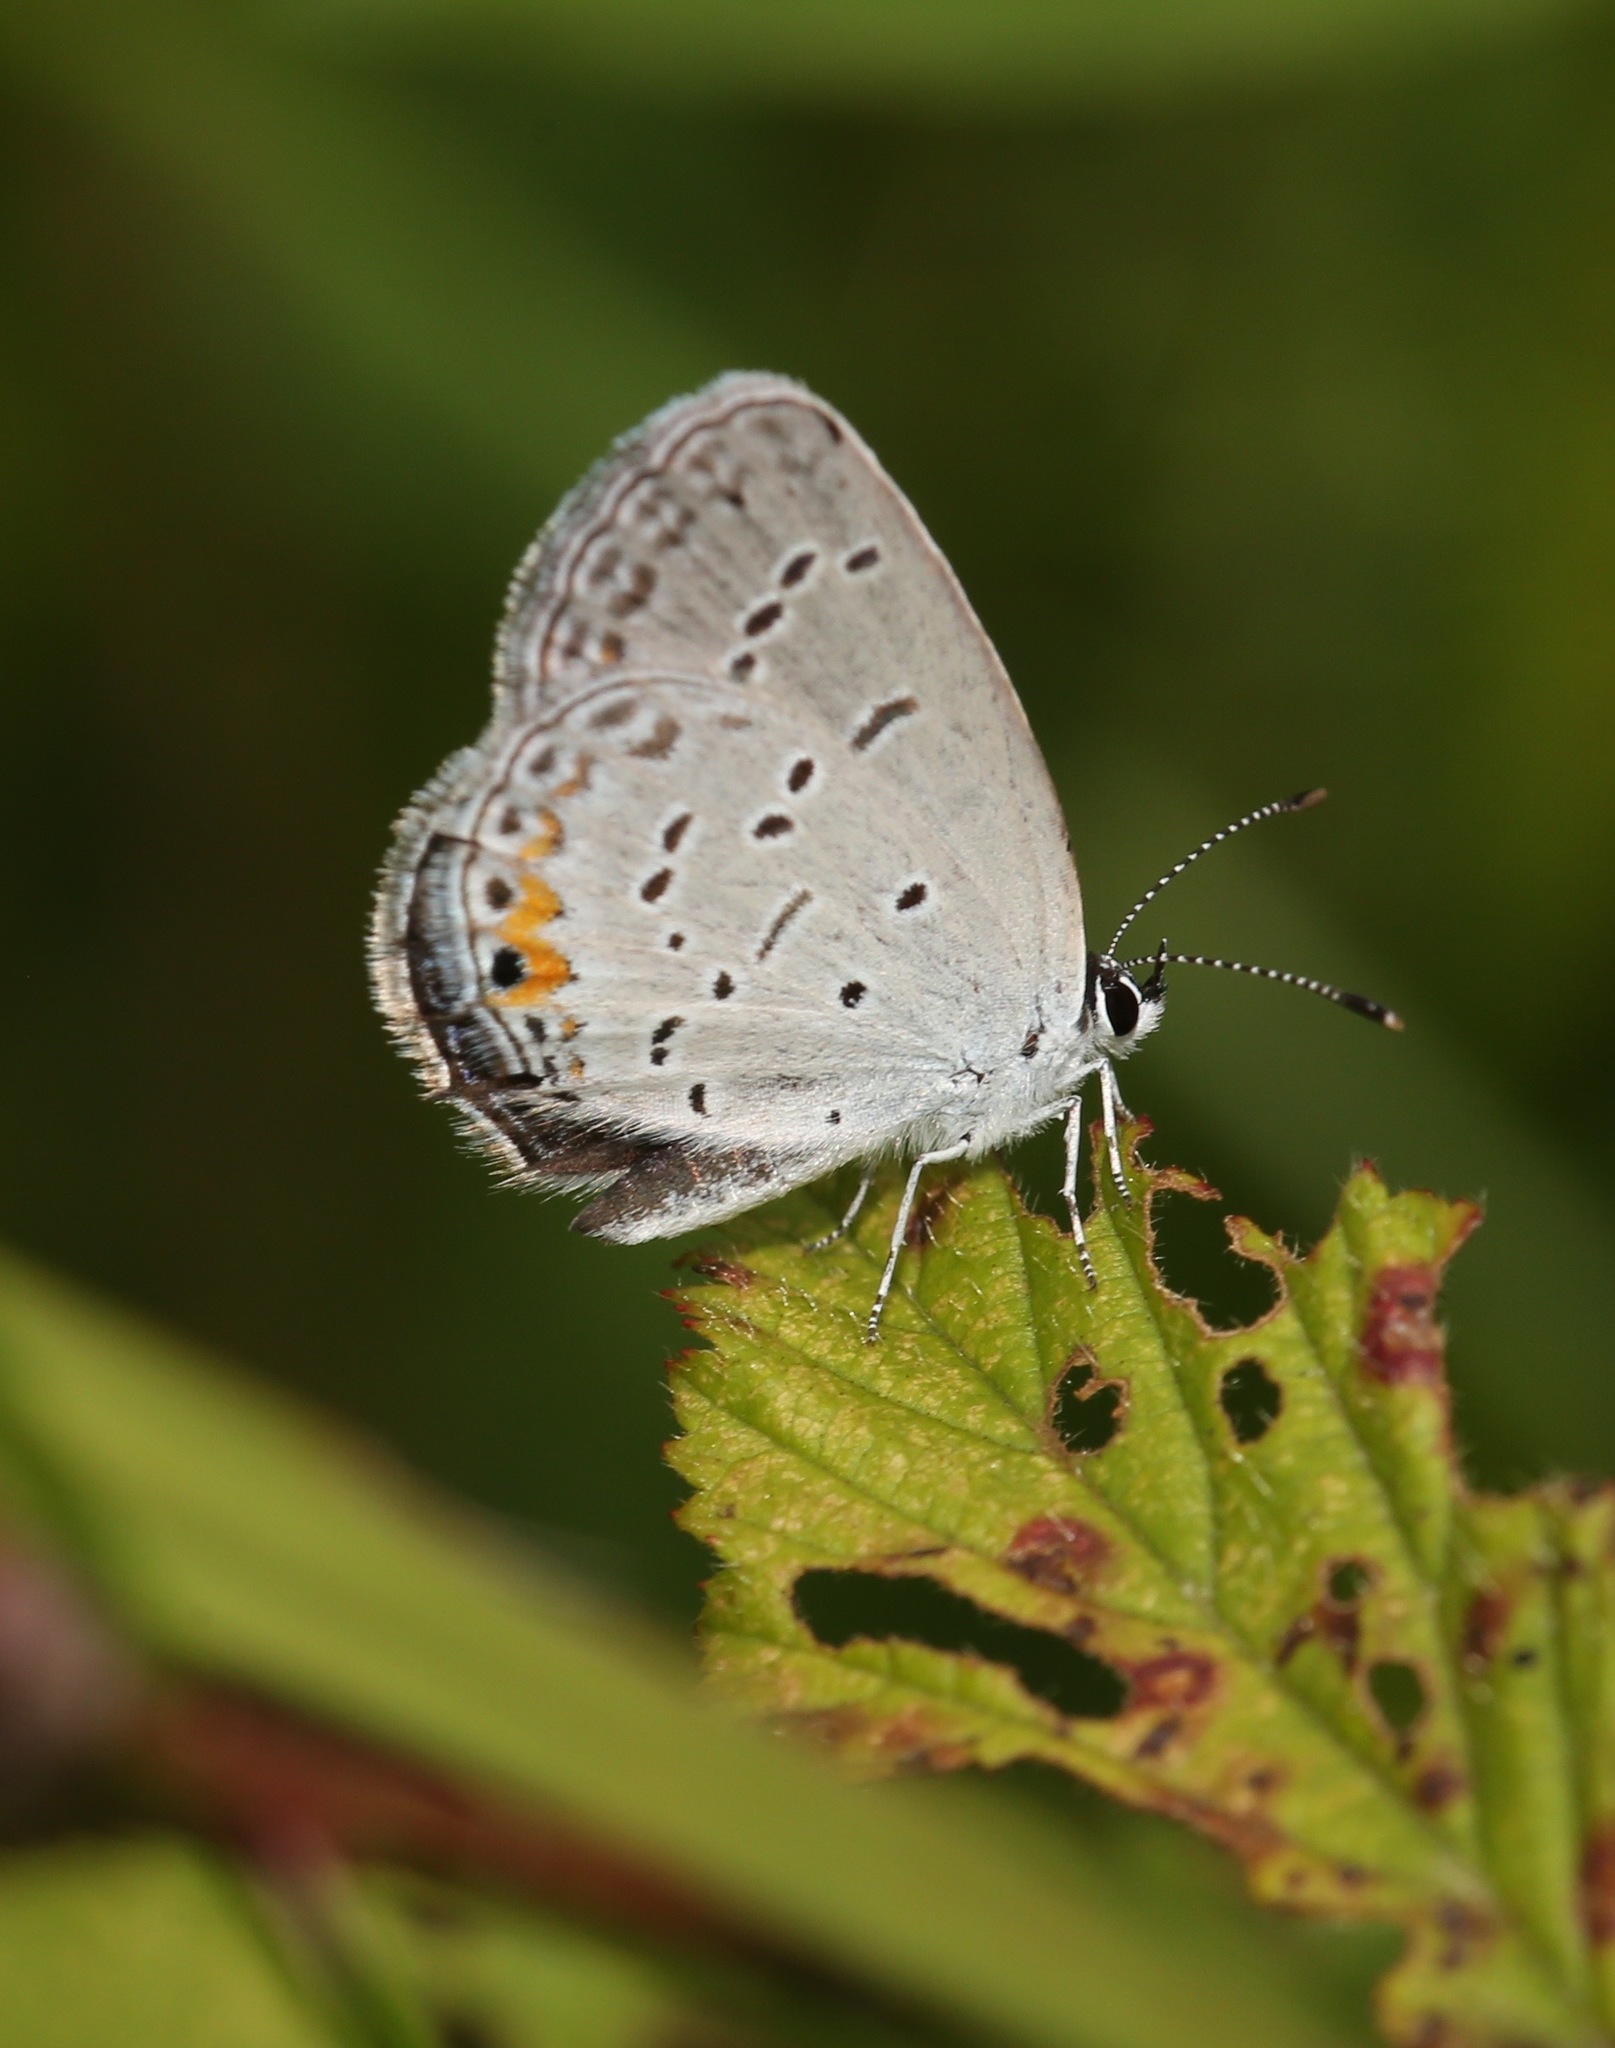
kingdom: Animalia
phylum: Arthropoda
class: Insecta
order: Lepidoptera
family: Lycaenidae
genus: Elkalyce
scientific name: Elkalyce comyntas
